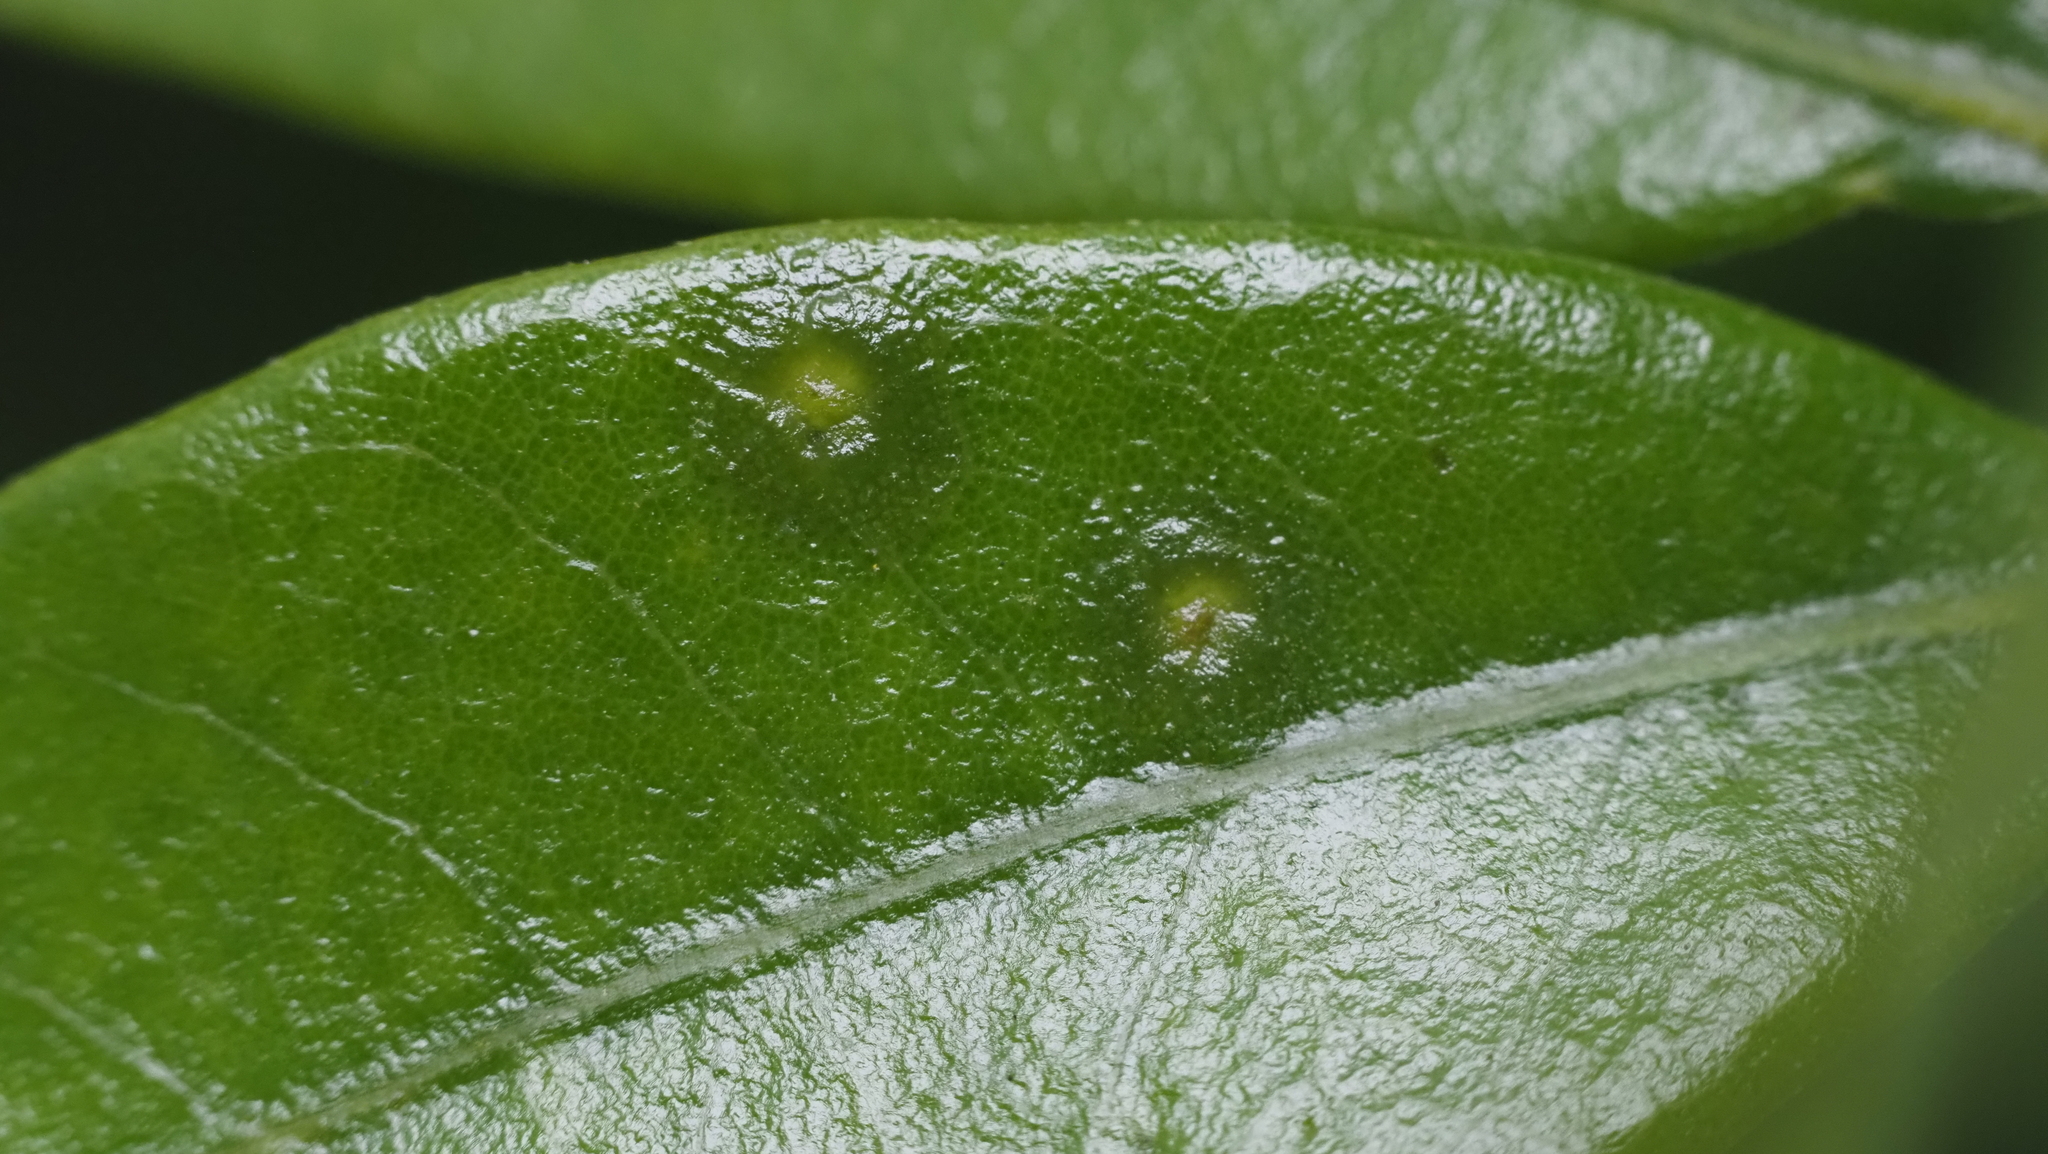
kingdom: Animalia
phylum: Arthropoda
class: Insecta
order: Hymenoptera
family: Cynipidae
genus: Neuroterus
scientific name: Neuroterus bussae
